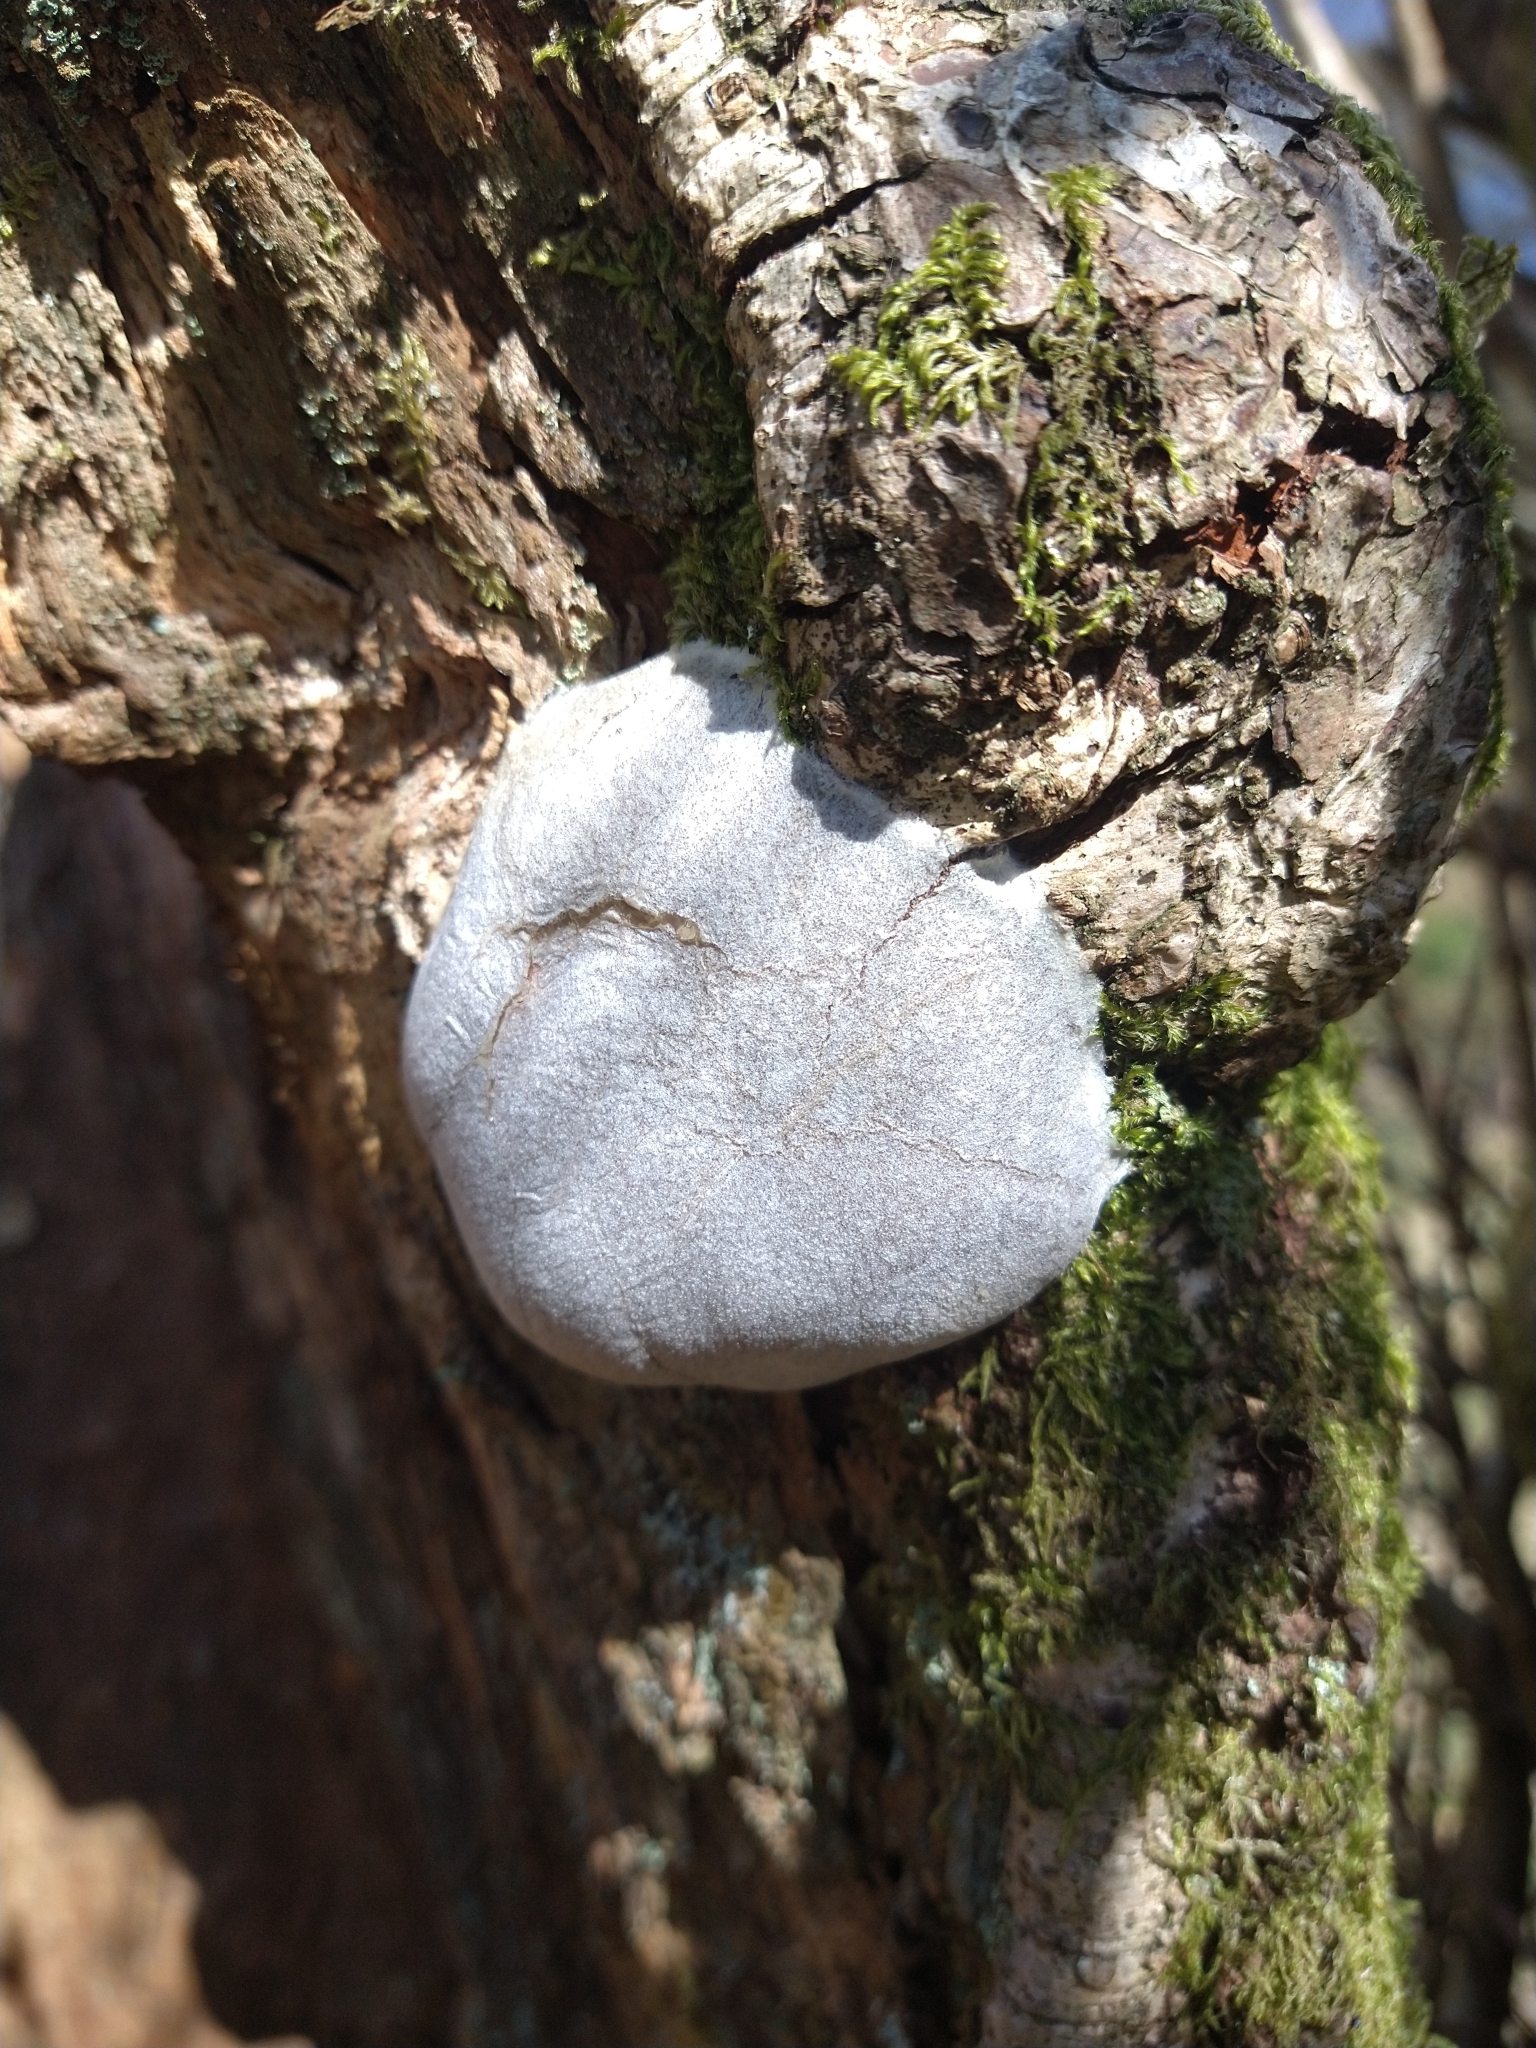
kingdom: Protozoa
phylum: Mycetozoa
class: Myxomycetes
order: Cribrariales
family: Tubiferaceae
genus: Reticularia
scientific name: Reticularia lycoperdon
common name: False puffball
